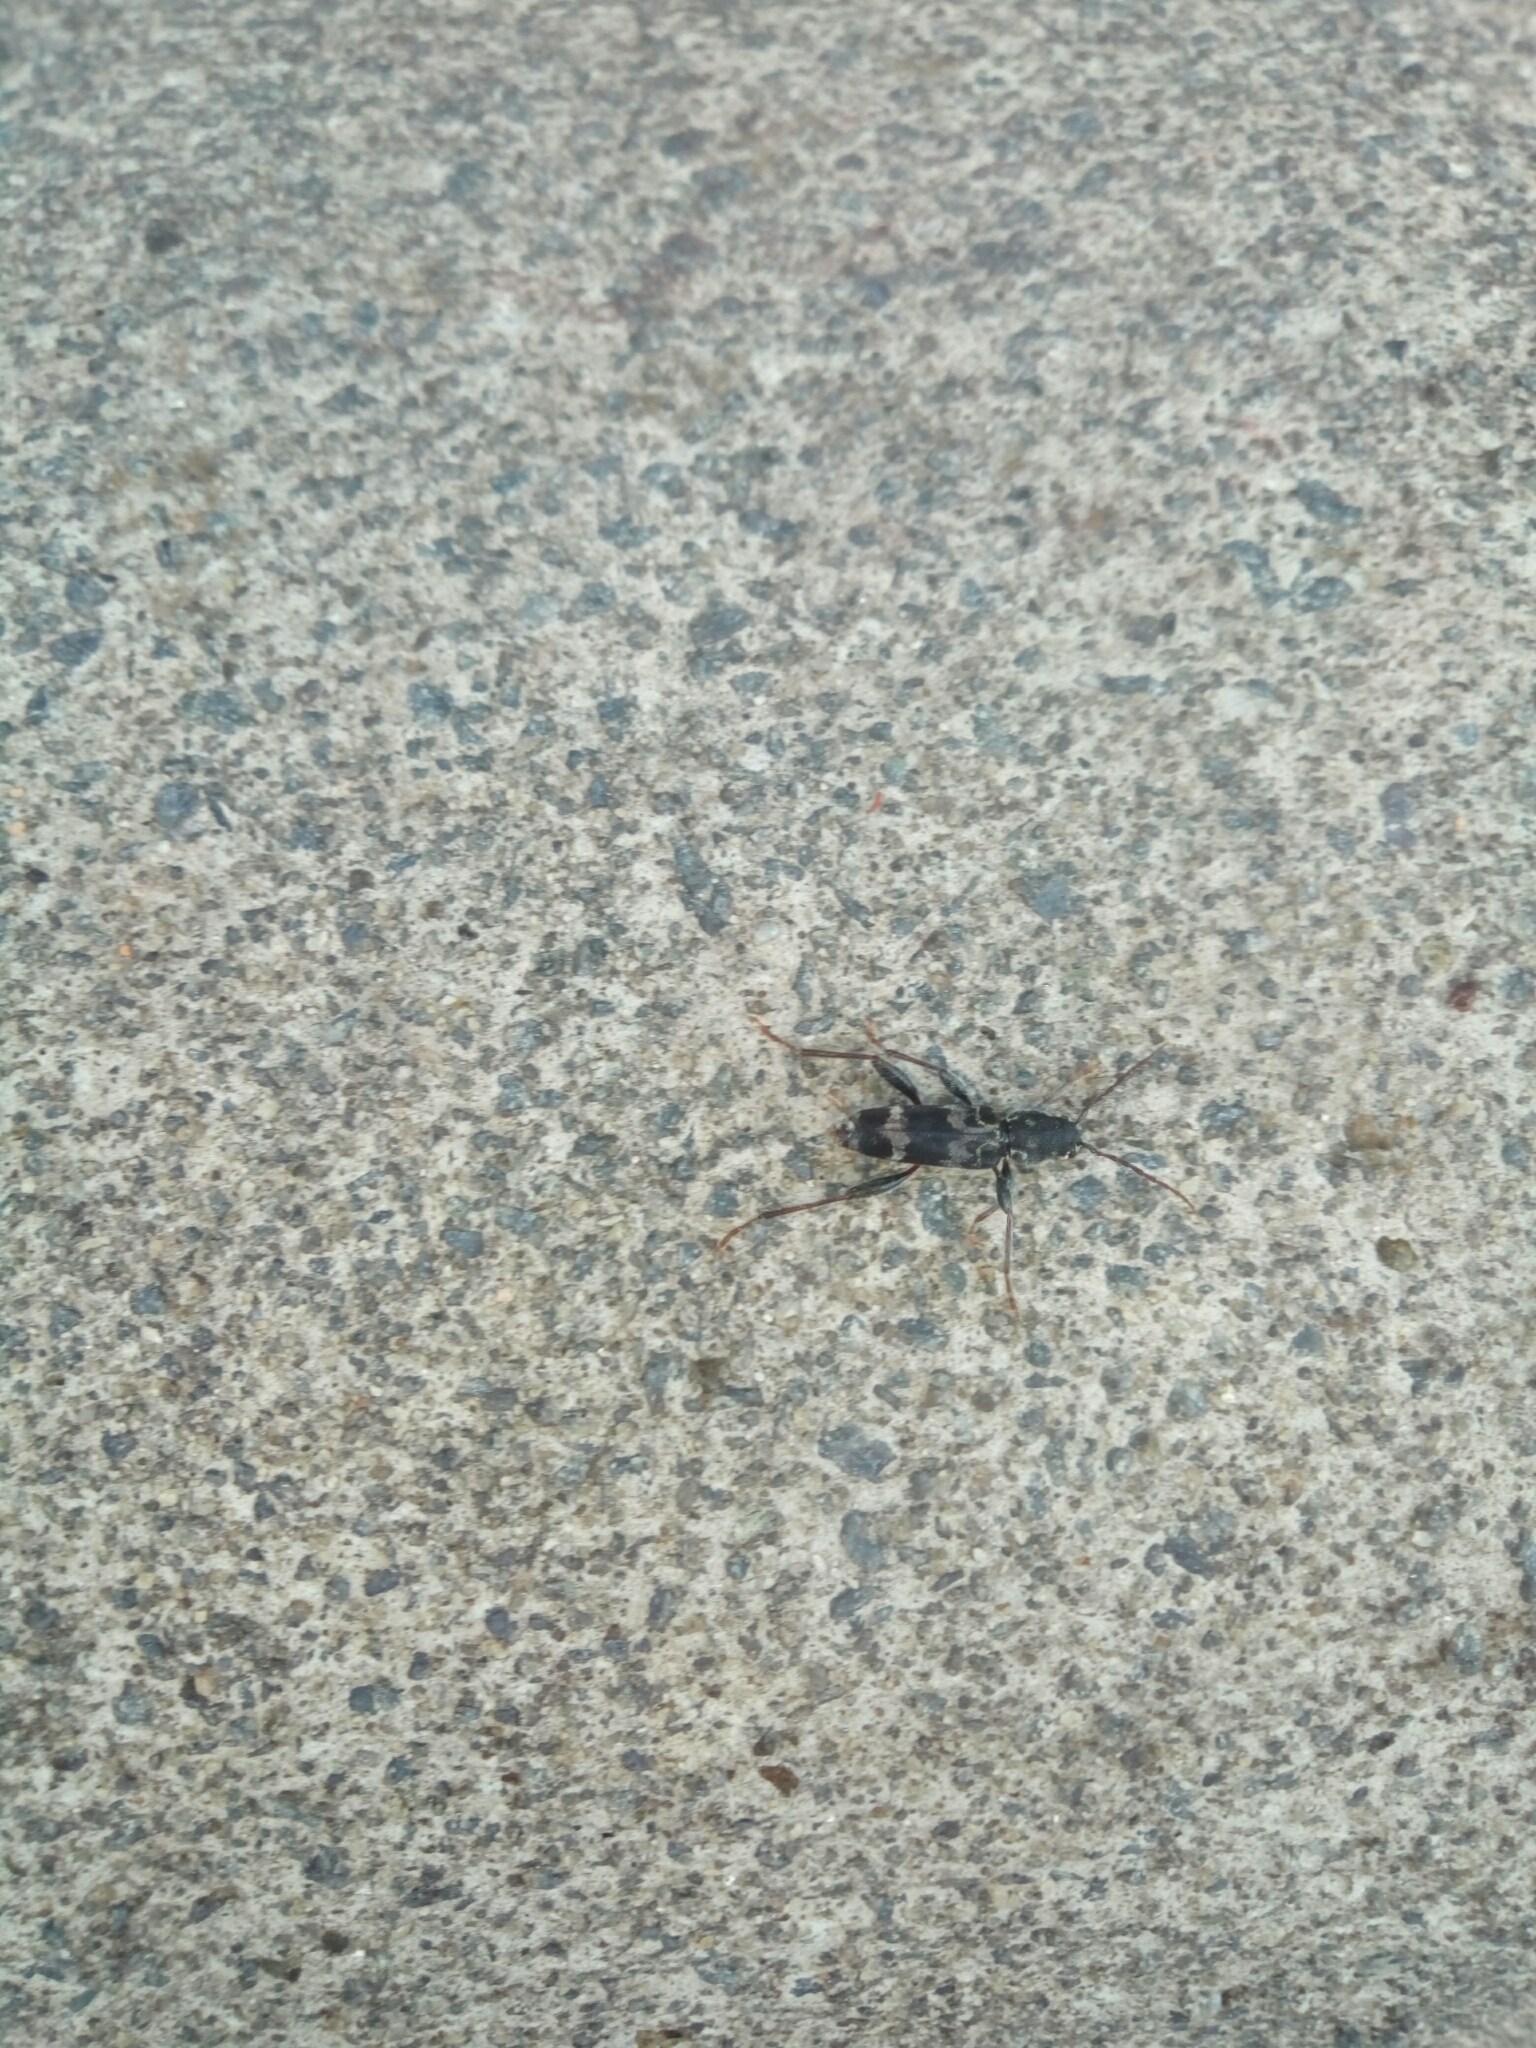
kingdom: Animalia
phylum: Arthropoda
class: Insecta
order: Coleoptera
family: Cerambycidae
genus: Xylotrechus
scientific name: Xylotrechus colonus
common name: Long-horned beetle
